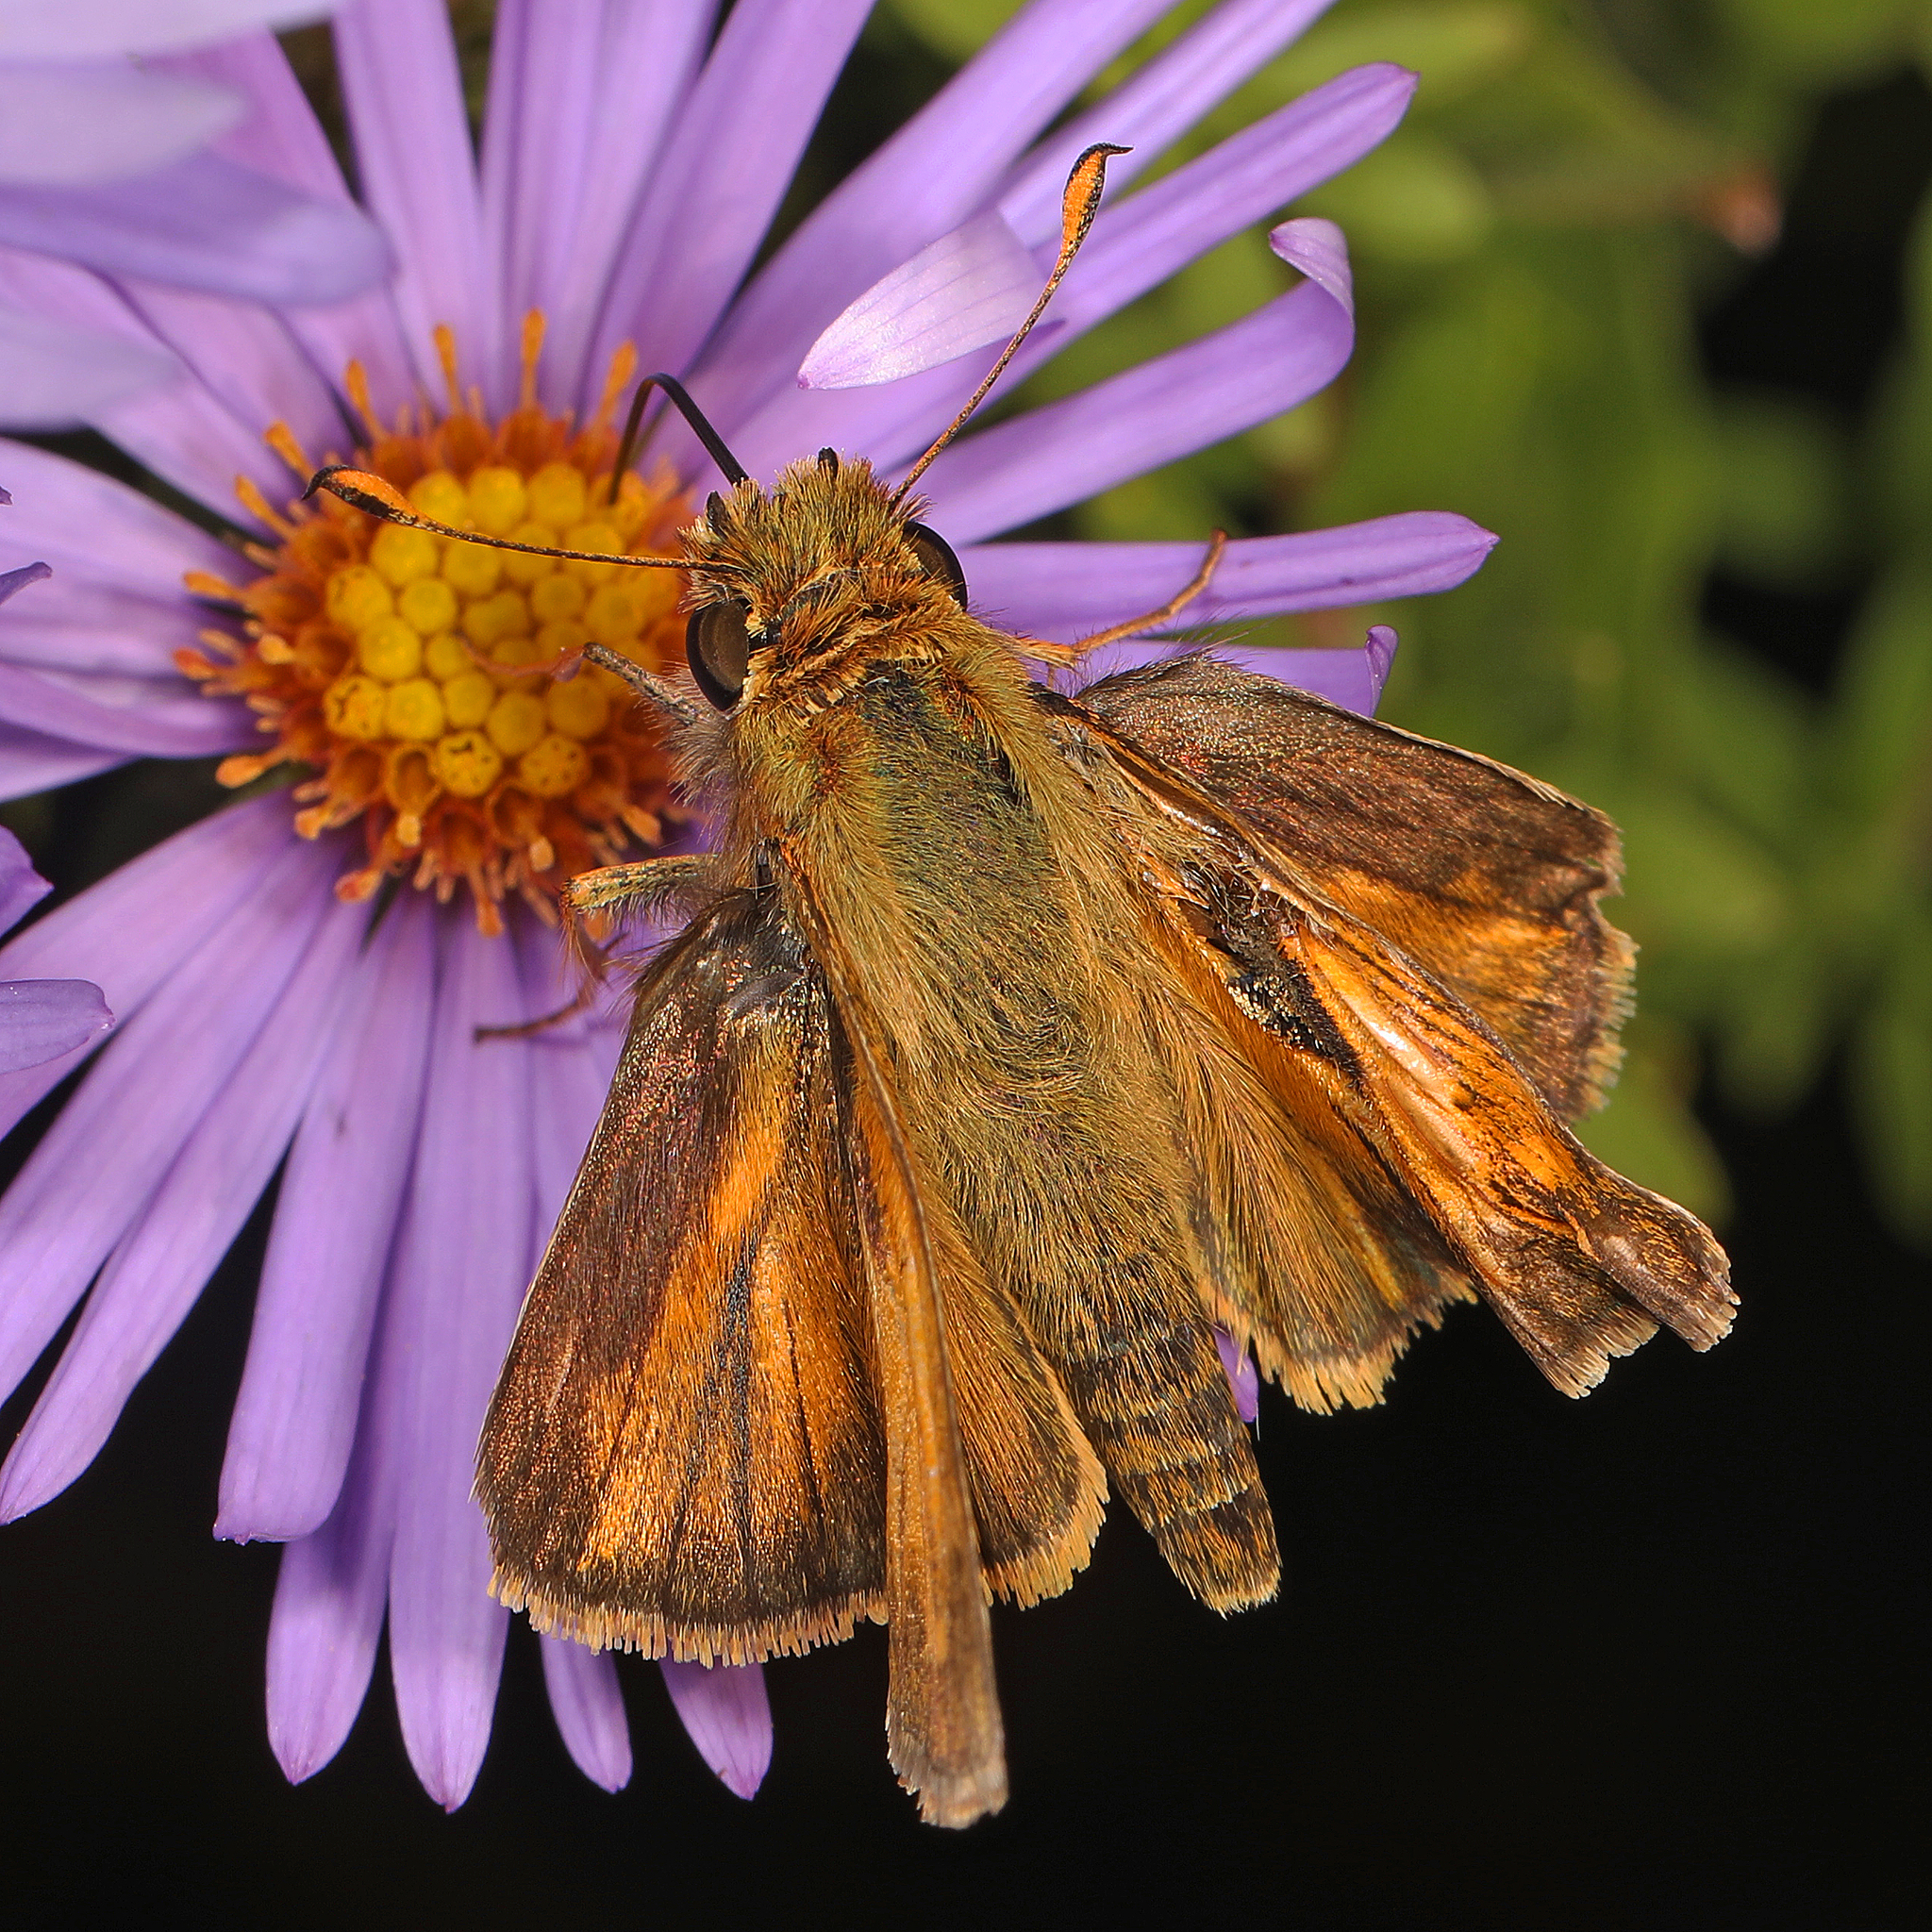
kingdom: Animalia
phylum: Arthropoda
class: Insecta
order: Lepidoptera
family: Hesperiidae
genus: Atalopedes
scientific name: Atalopedes
